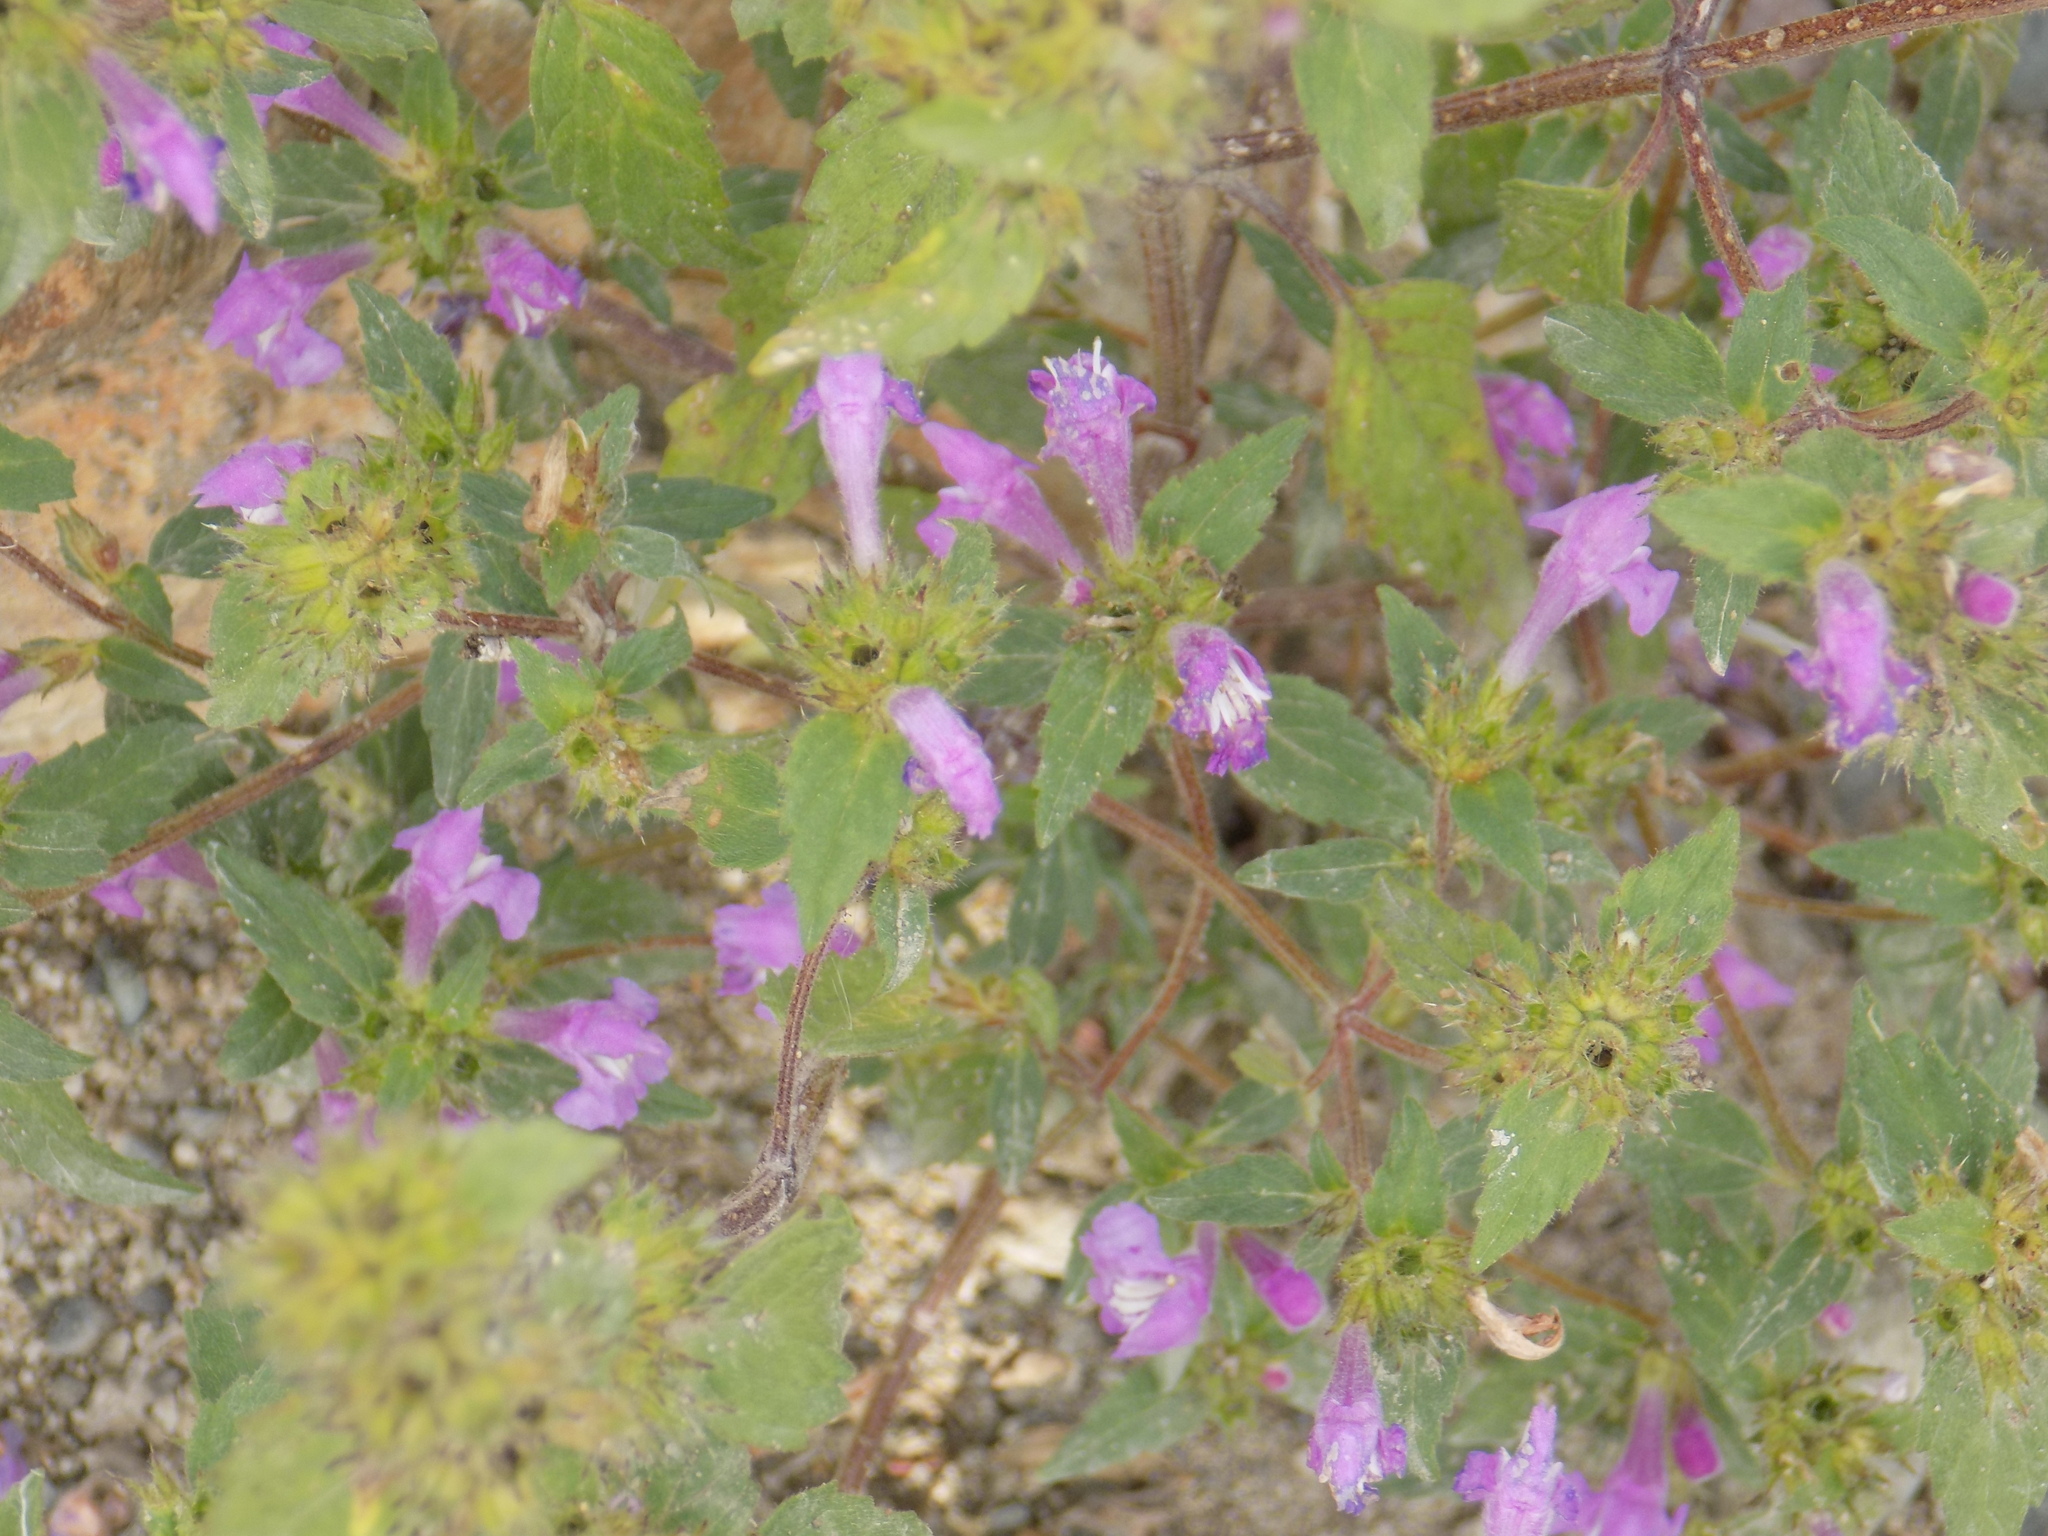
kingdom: Plantae
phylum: Tracheophyta
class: Magnoliopsida
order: Lamiales
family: Lamiaceae
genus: Galeopsis
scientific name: Galeopsis ladanum
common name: Broad-leaved hemp-nettle
